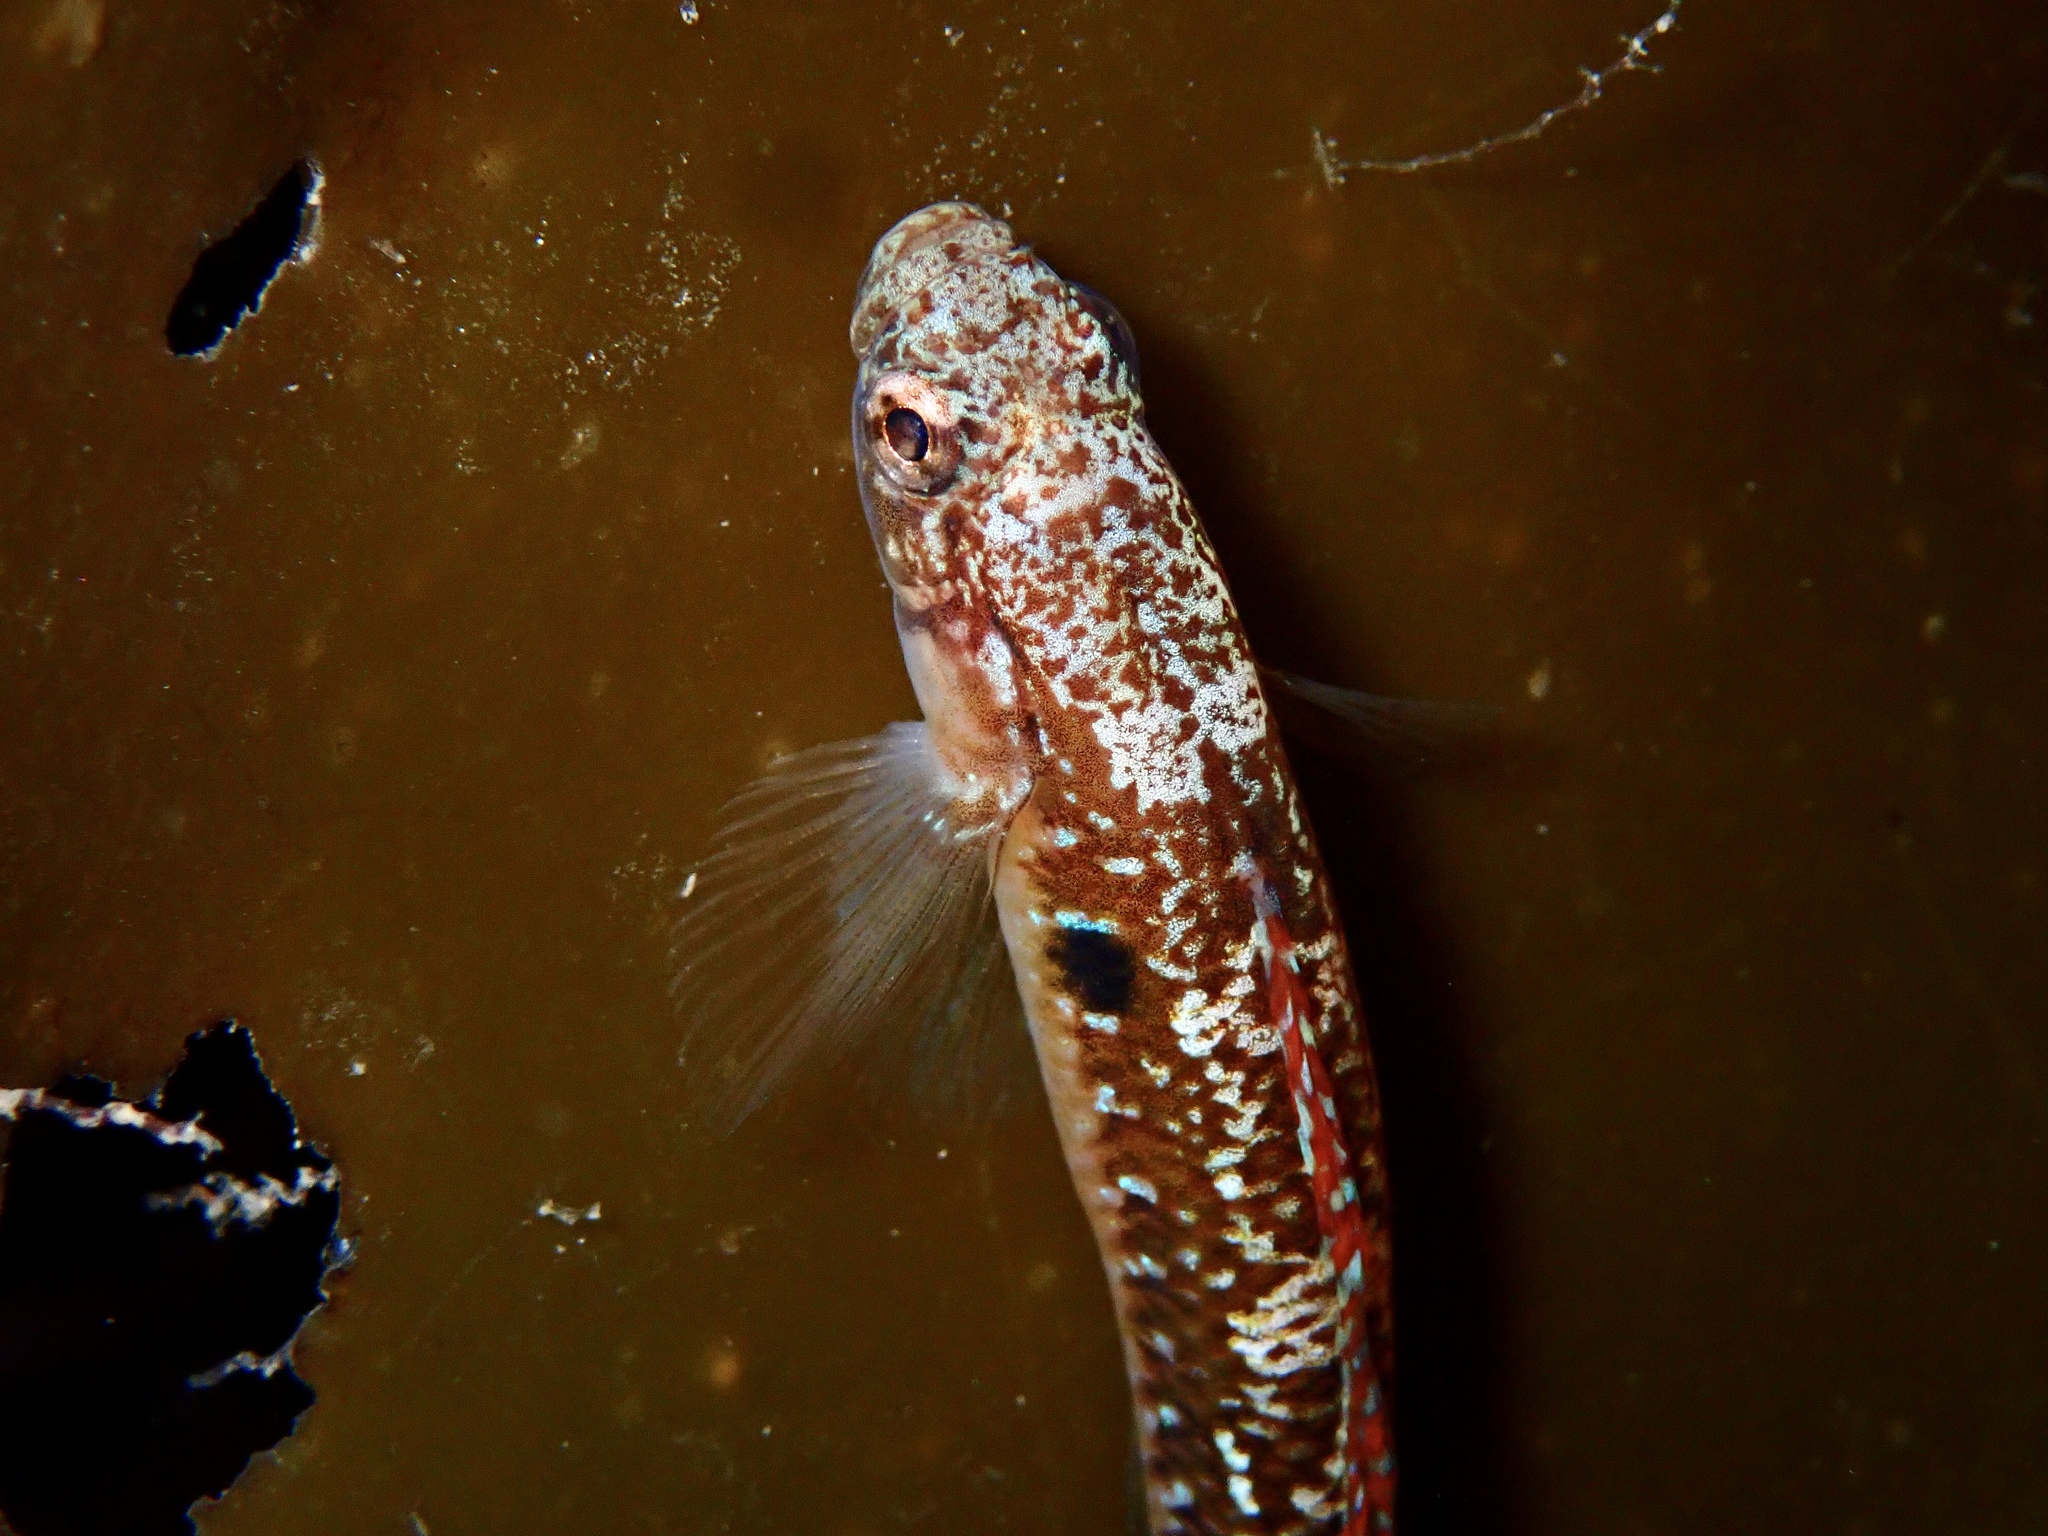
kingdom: Animalia
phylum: Chordata
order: Perciformes
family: Gobiidae
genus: Gobiusculus
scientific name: Gobiusculus flavescens
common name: Two-spotted goby
